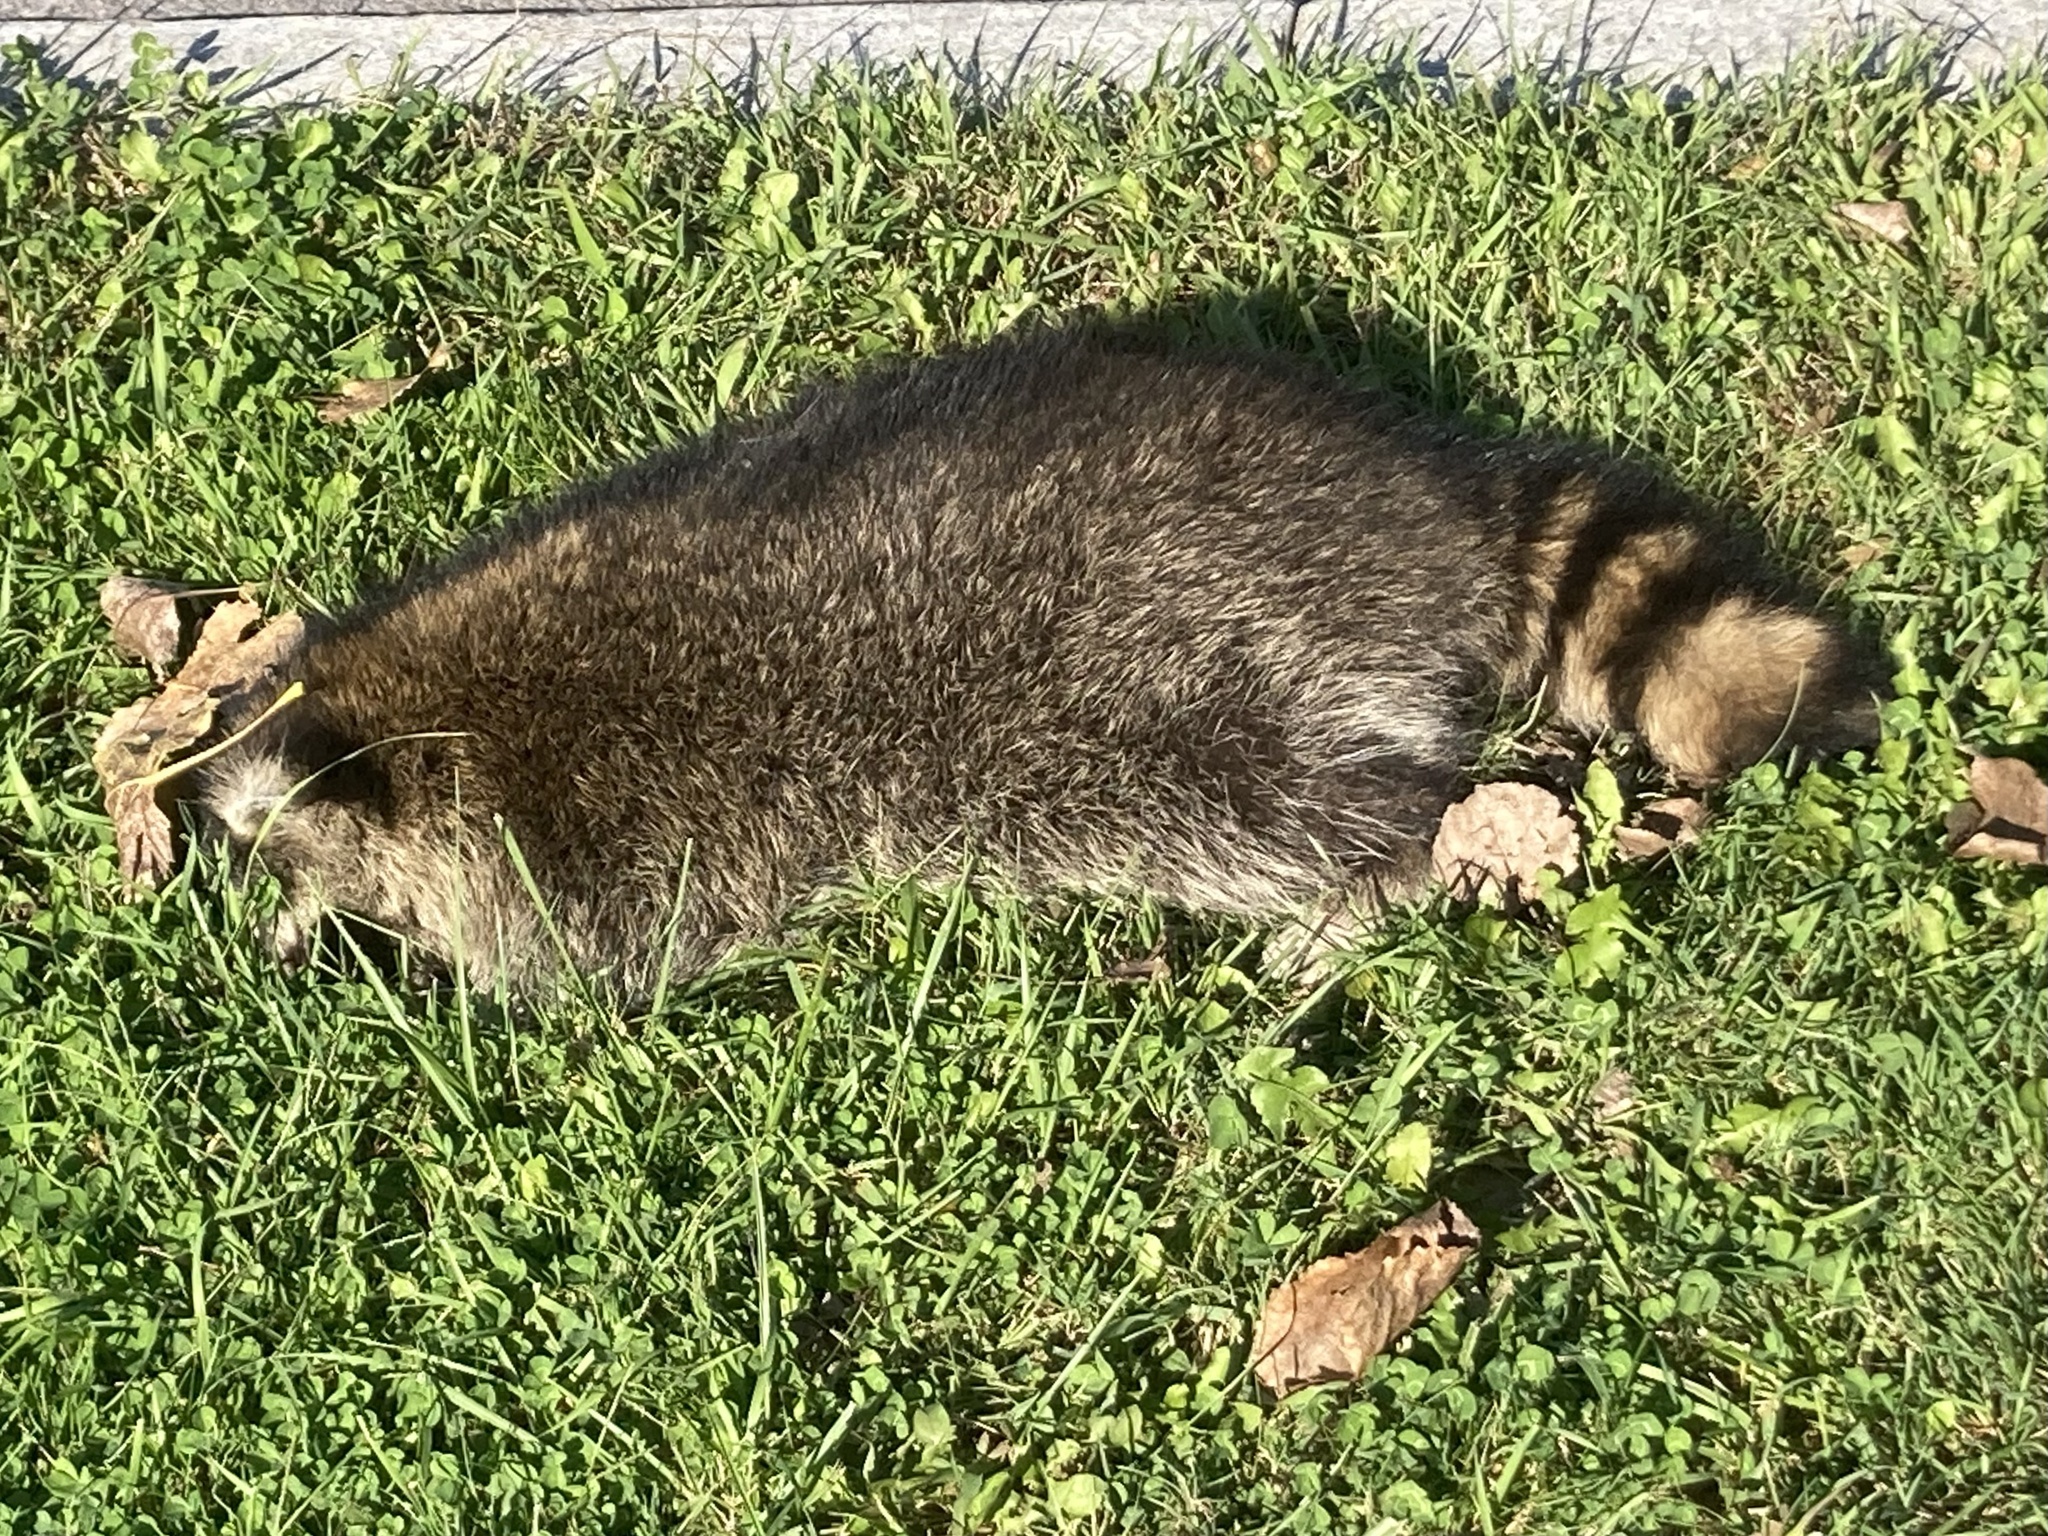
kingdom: Animalia
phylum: Chordata
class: Mammalia
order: Carnivora
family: Procyonidae
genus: Procyon
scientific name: Procyon lotor
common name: Raccoon
